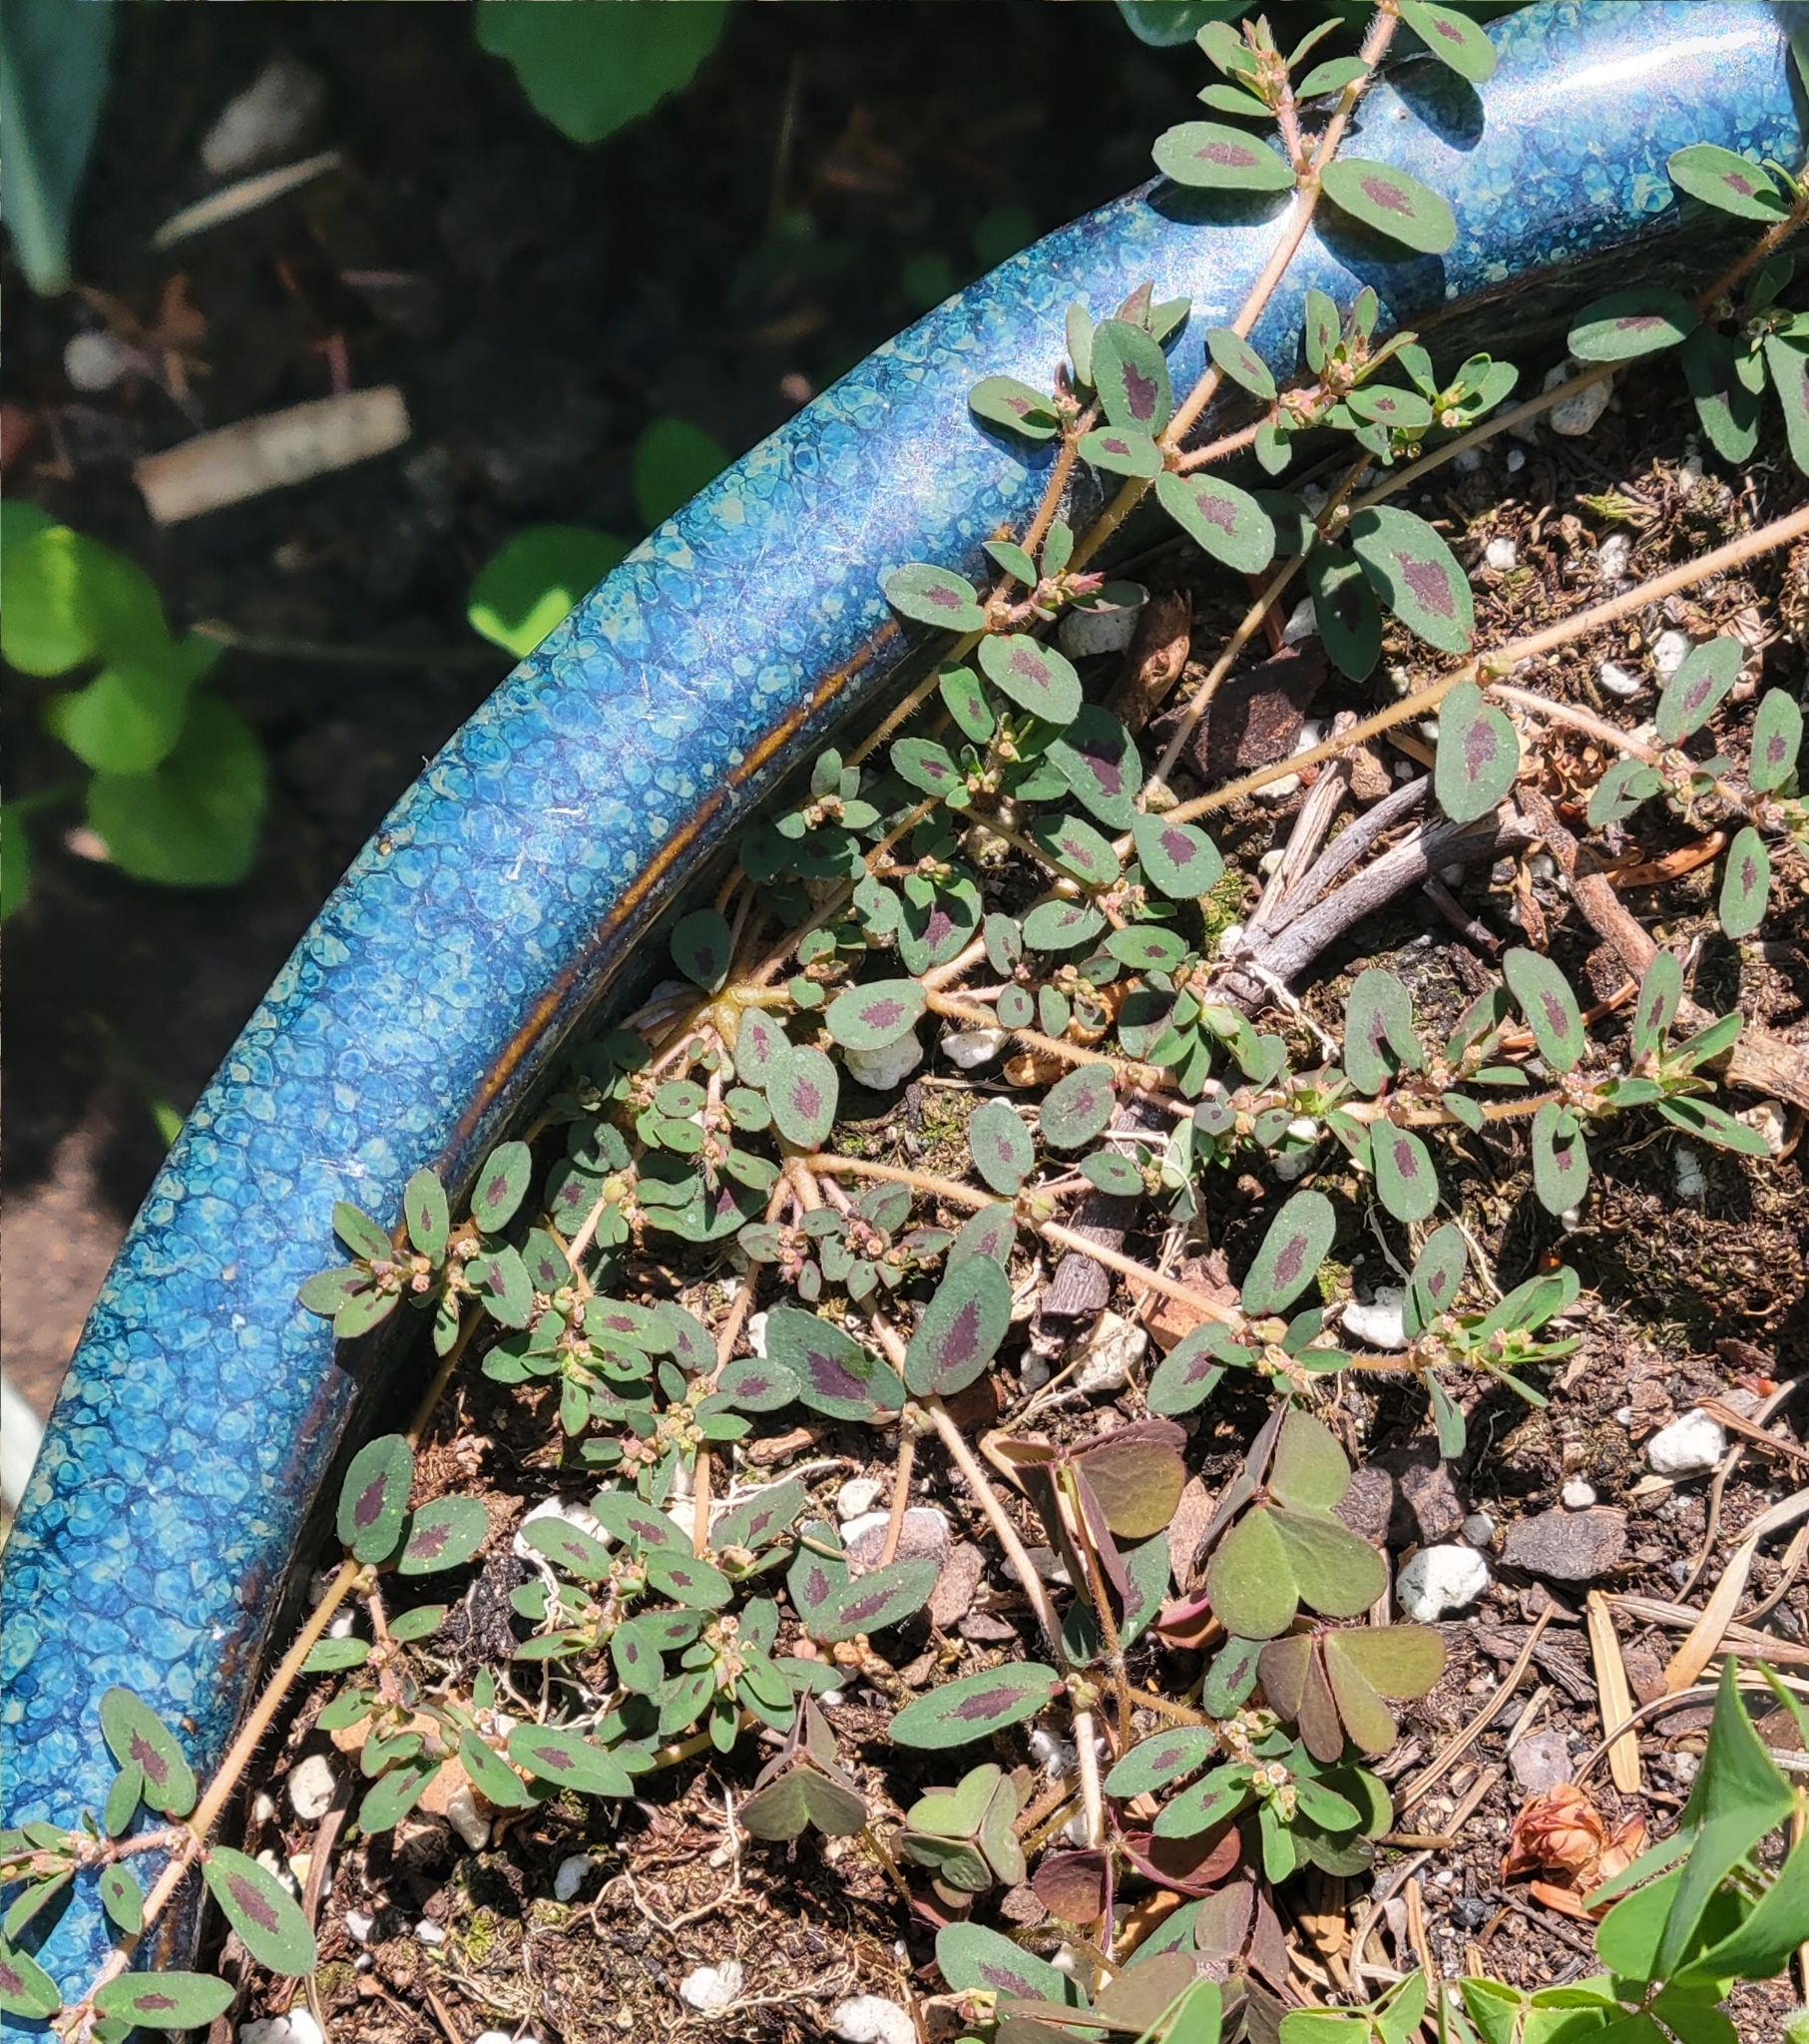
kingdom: Plantae
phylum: Tracheophyta
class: Magnoliopsida
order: Malpighiales
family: Euphorbiaceae
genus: Euphorbia
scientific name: Euphorbia maculata
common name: Spotted spurge
